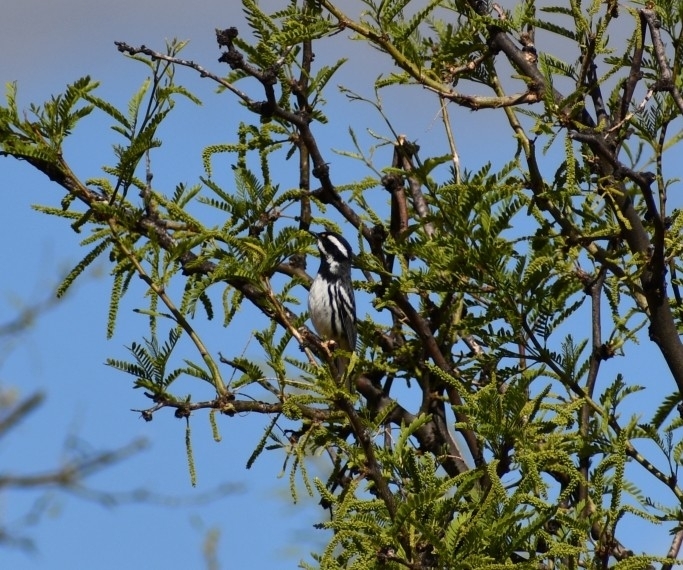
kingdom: Animalia
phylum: Chordata
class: Aves
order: Passeriformes
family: Parulidae
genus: Setophaga
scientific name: Setophaga nigrescens
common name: Black-throated gray warbler
